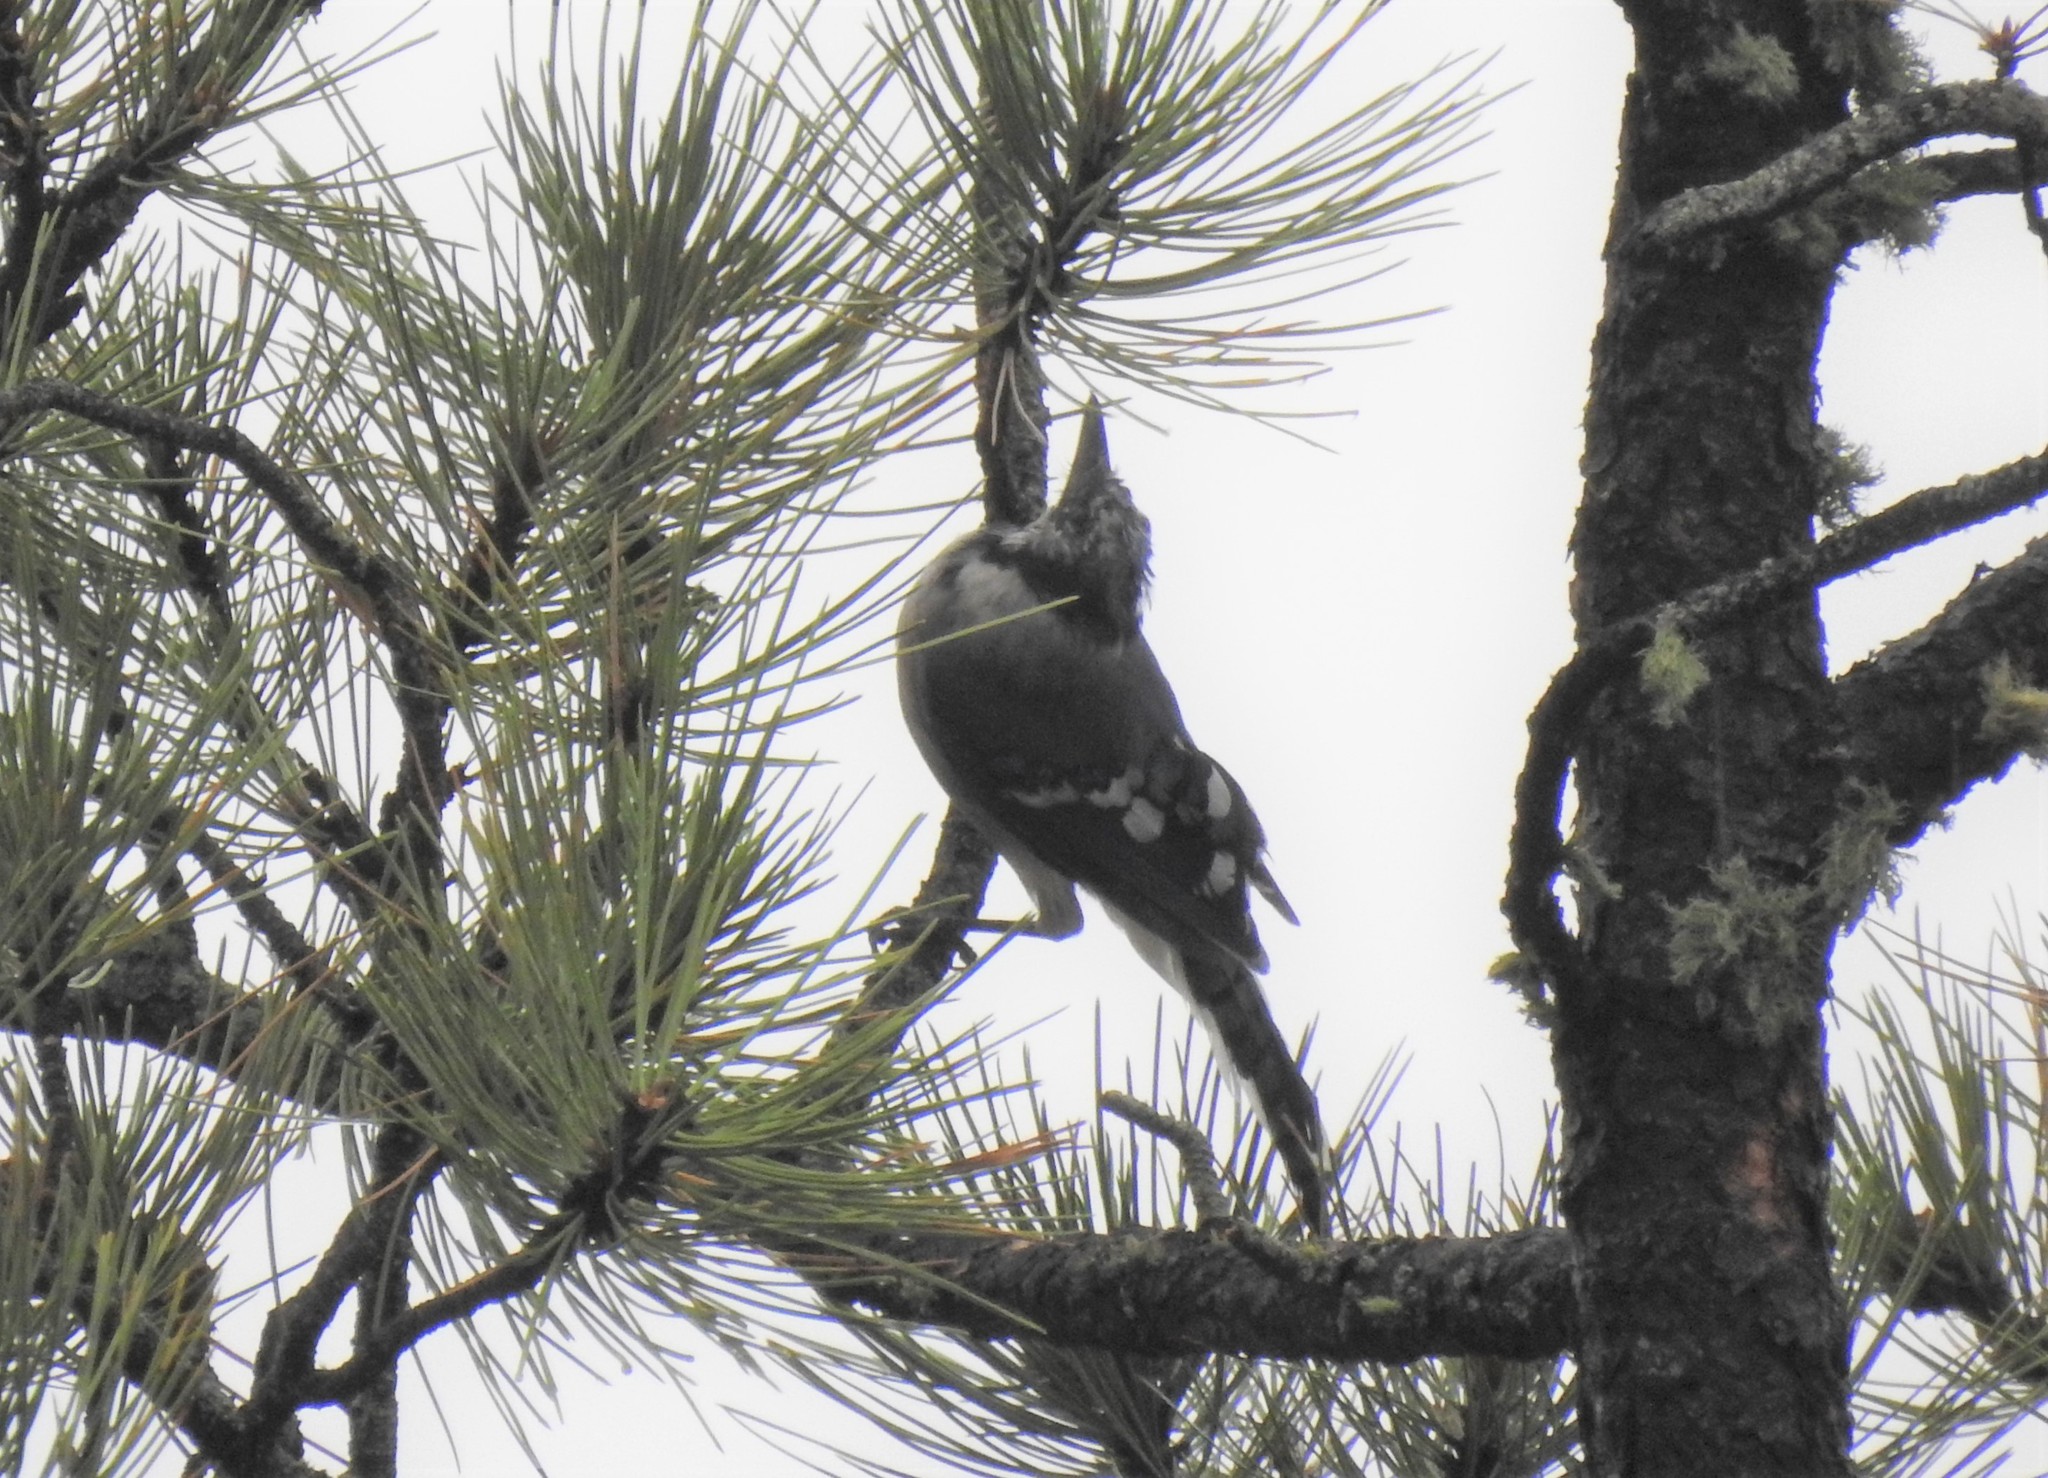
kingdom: Animalia
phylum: Chordata
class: Aves
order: Passeriformes
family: Corvidae
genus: Cyanocitta
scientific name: Cyanocitta cristata
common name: Blue jay
